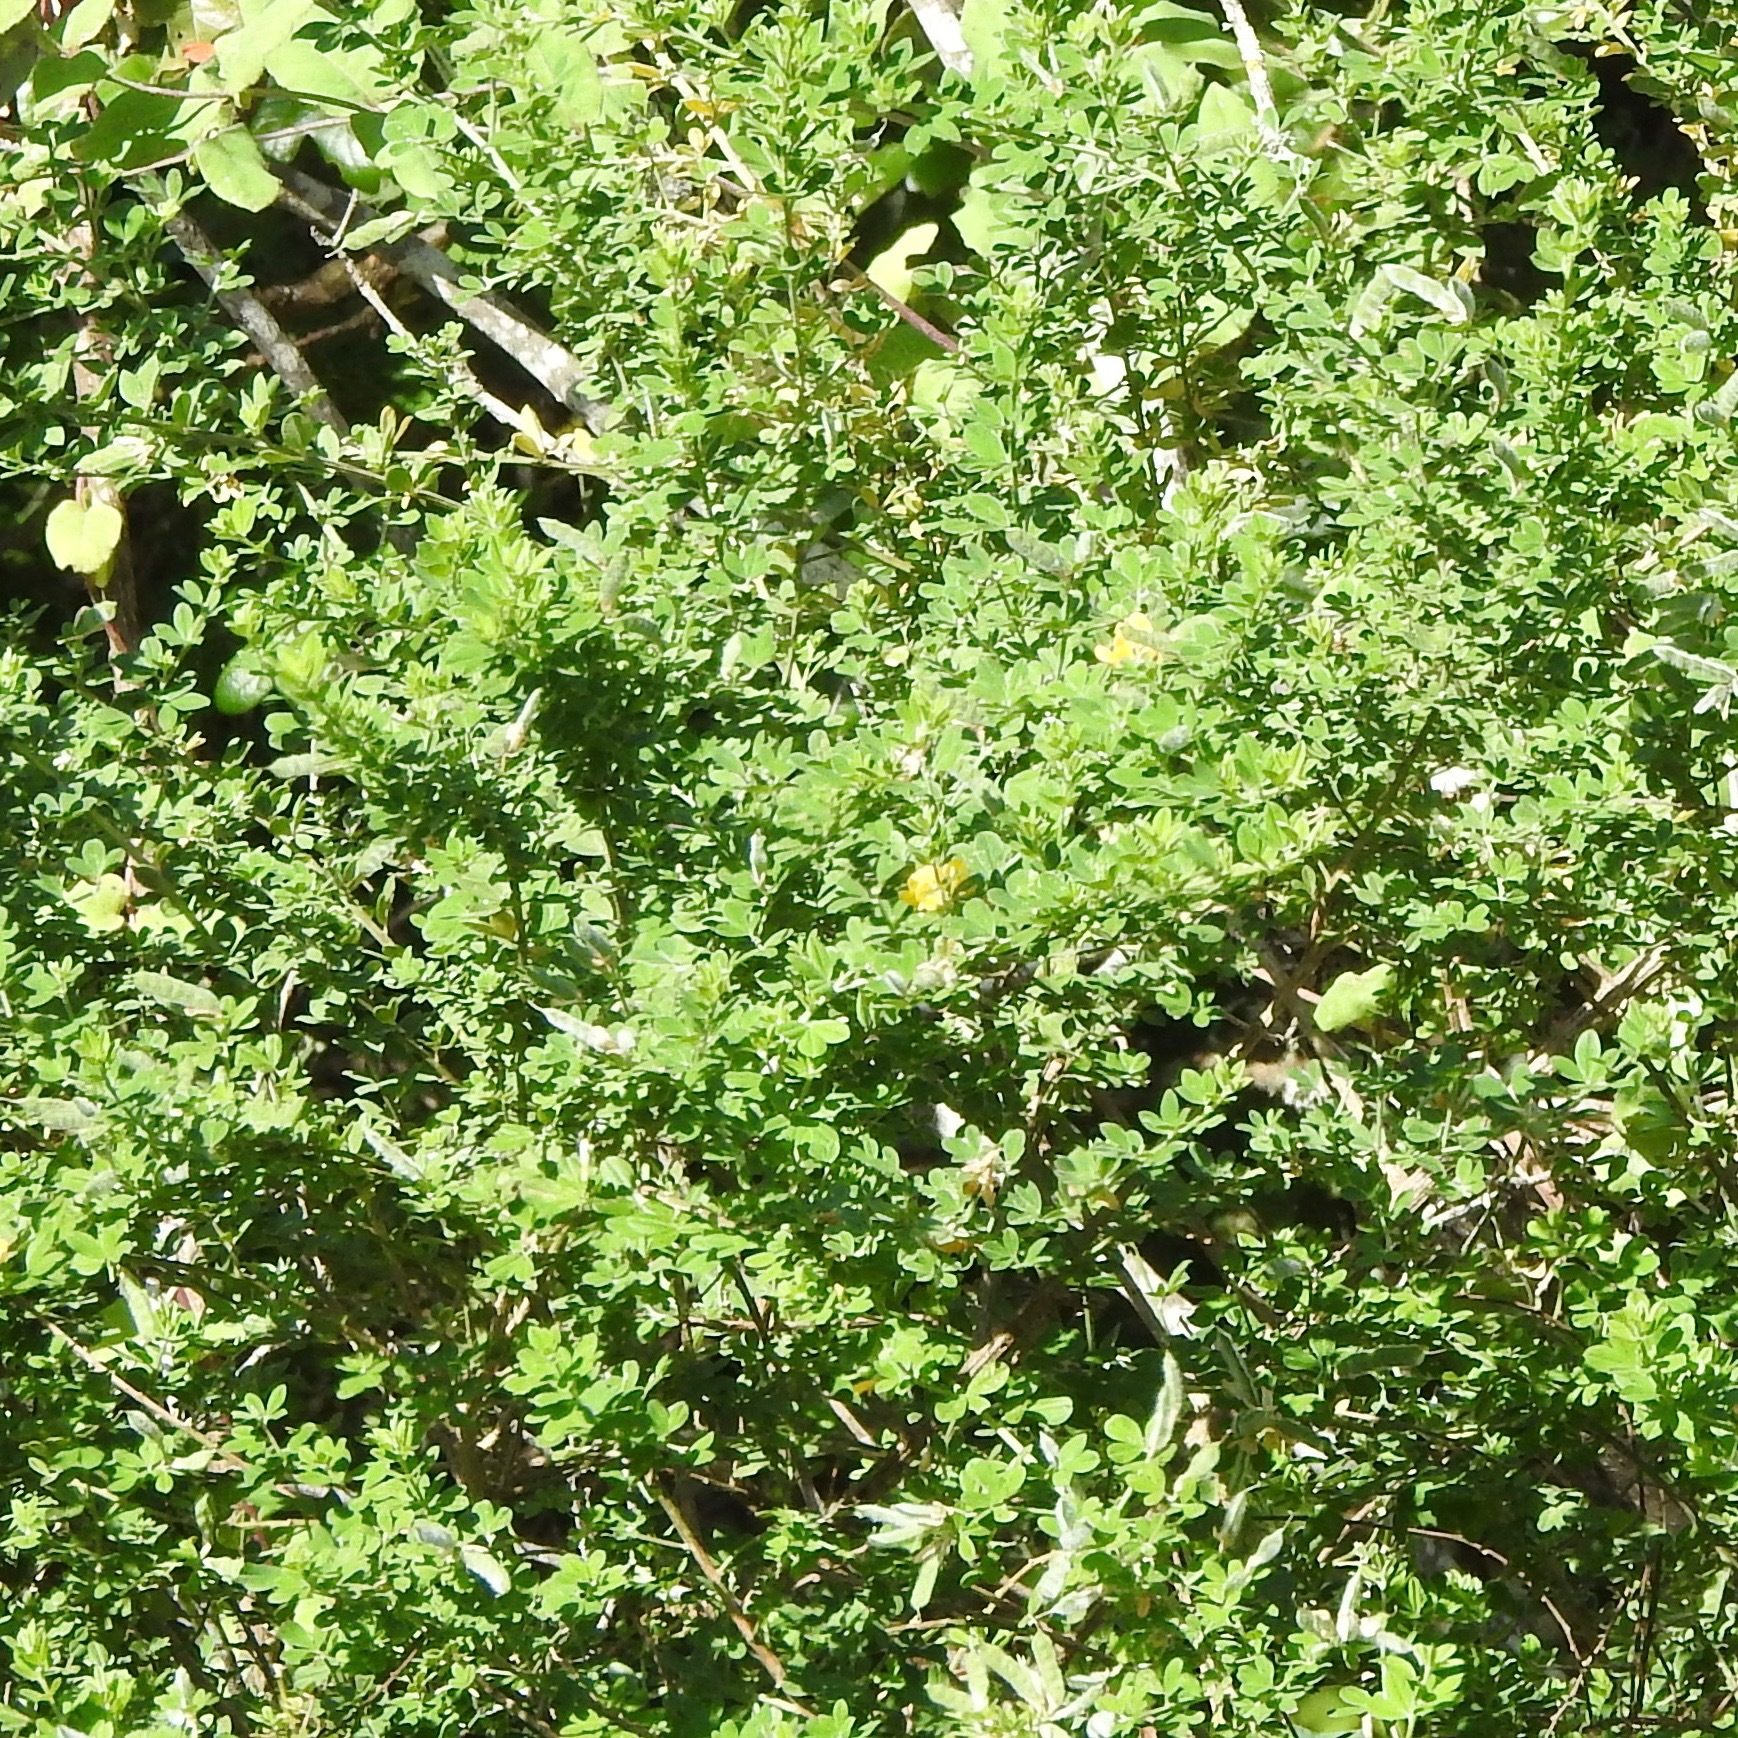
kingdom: Plantae
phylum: Tracheophyta
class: Magnoliopsida
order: Fabales
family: Fabaceae
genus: Genista
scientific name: Genista monspessulana
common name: Montpellier broom
